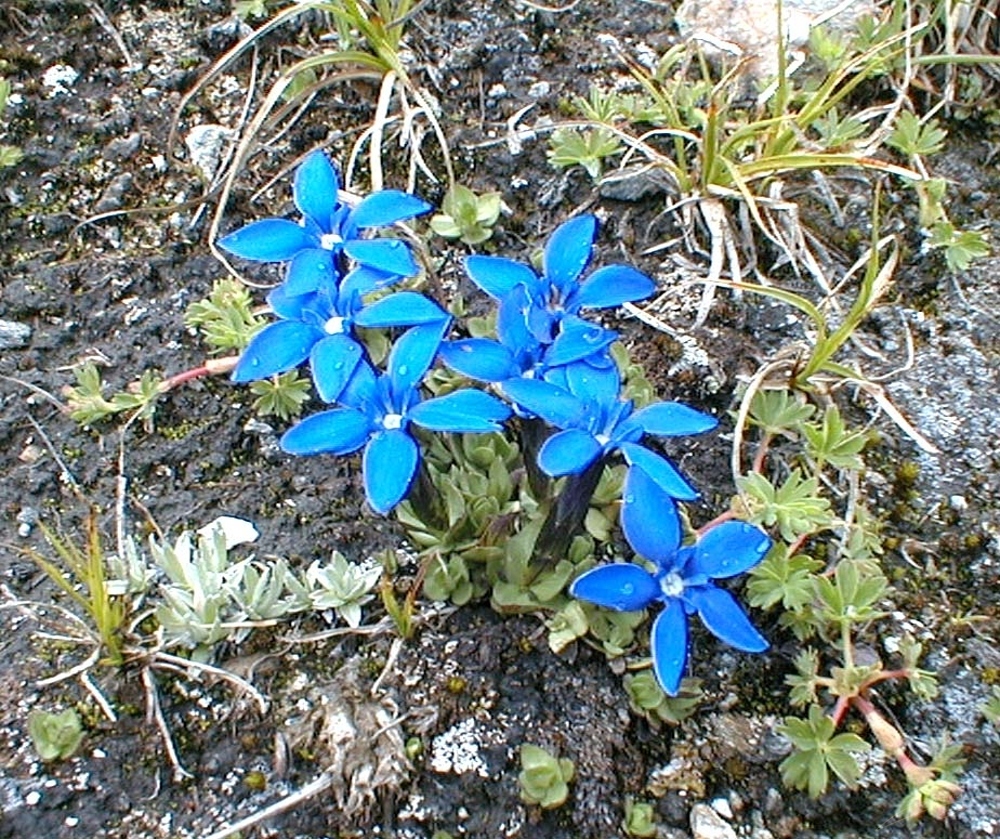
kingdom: Plantae
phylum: Tracheophyta
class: Magnoliopsida
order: Gentianales
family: Gentianaceae
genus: Gentiana
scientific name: Gentiana brachyphylla
